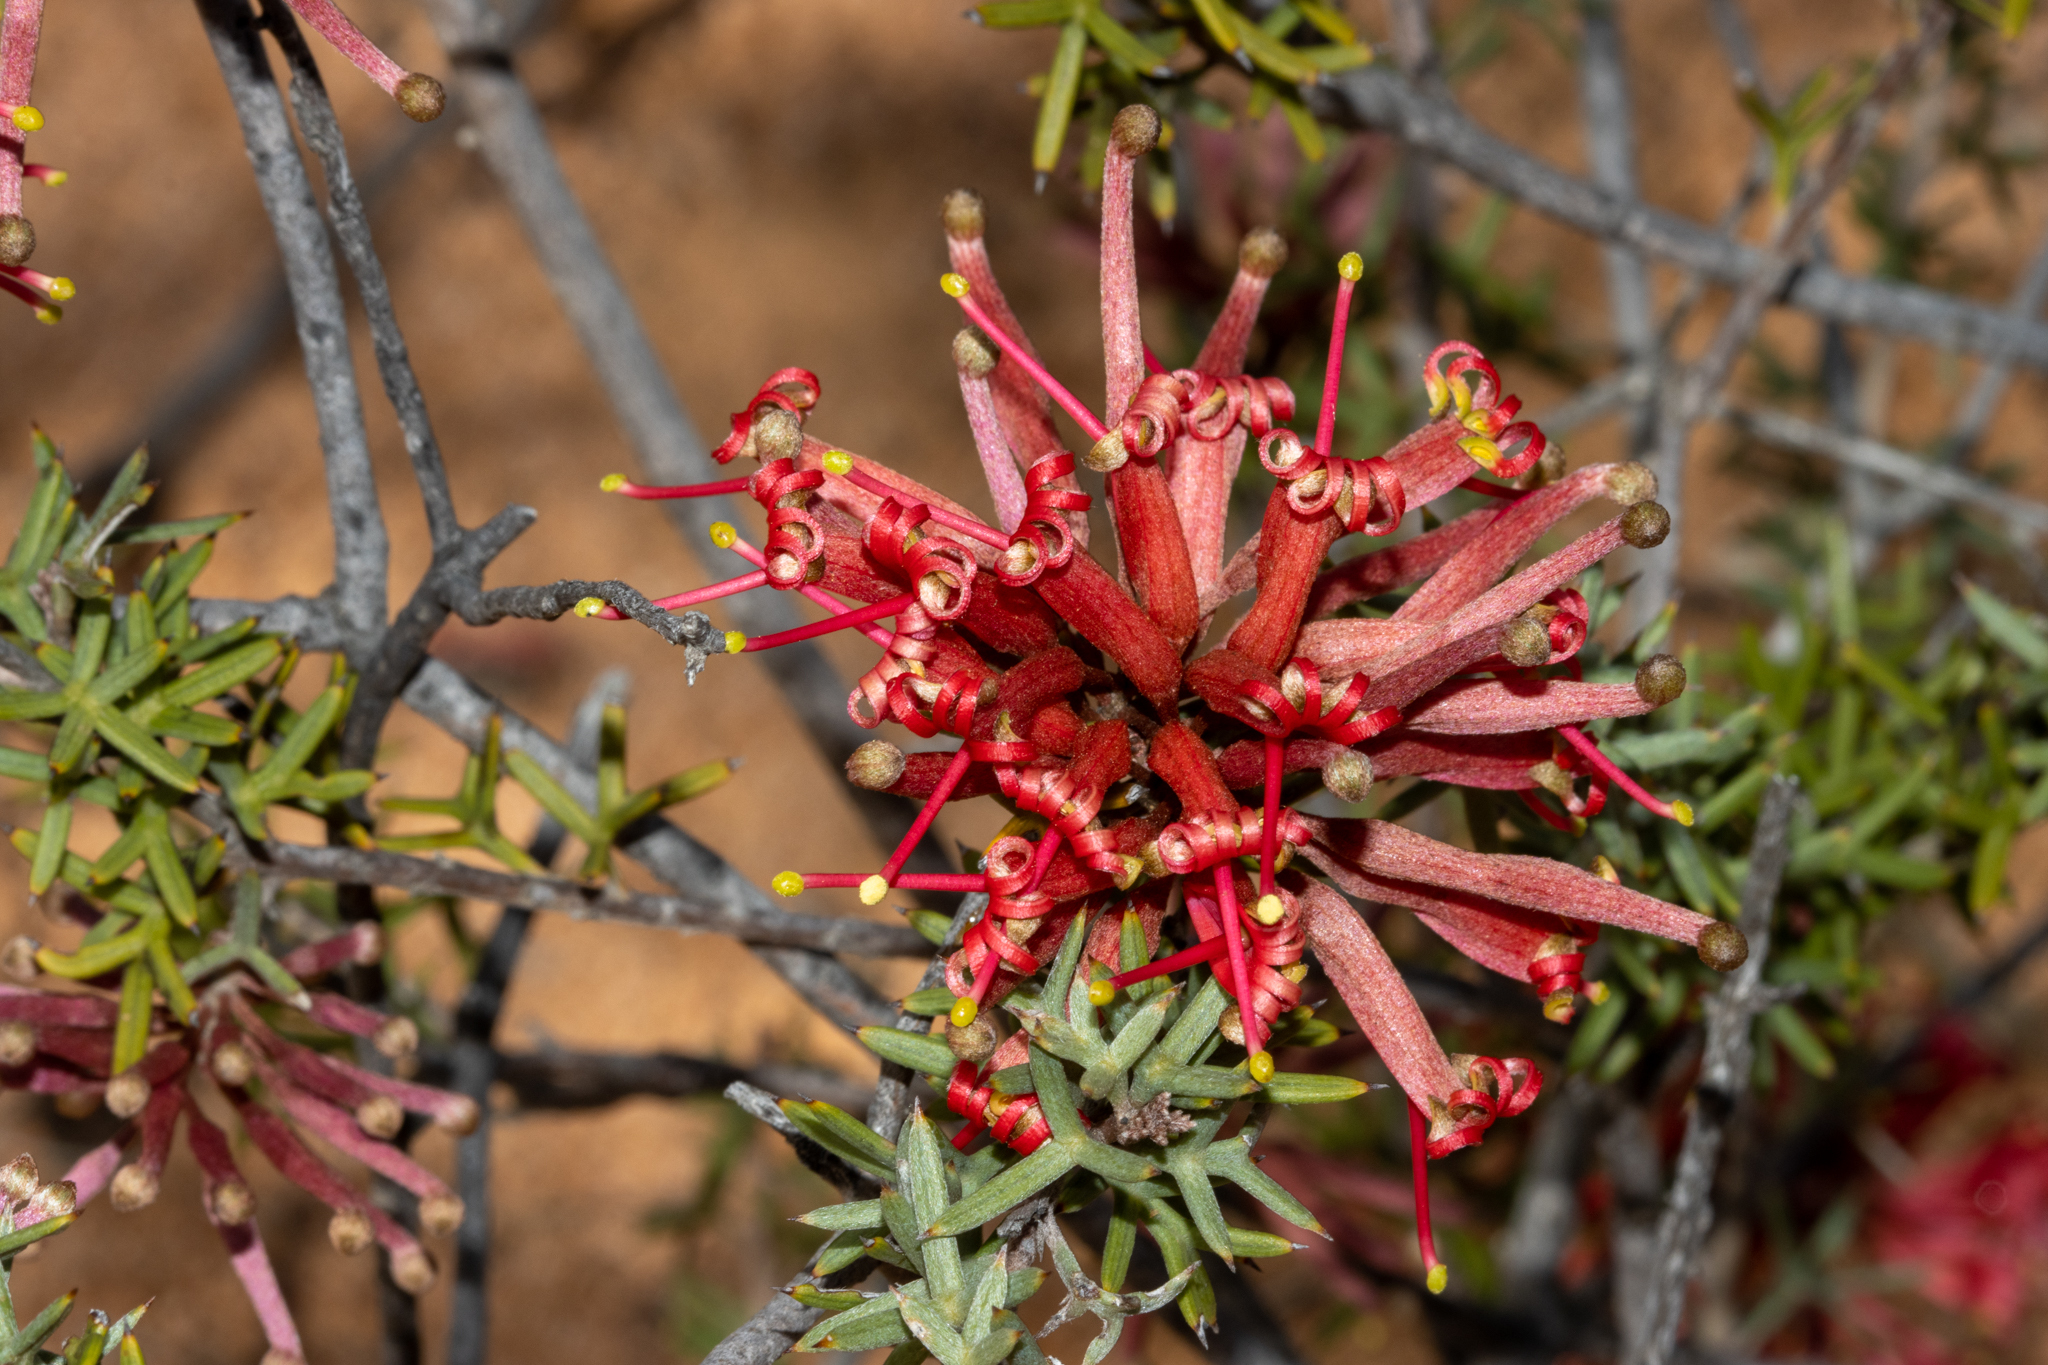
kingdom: Plantae
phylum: Tracheophyta
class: Magnoliopsida
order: Proteales
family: Proteaceae
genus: Grevillea
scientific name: Grevillea huegelii
